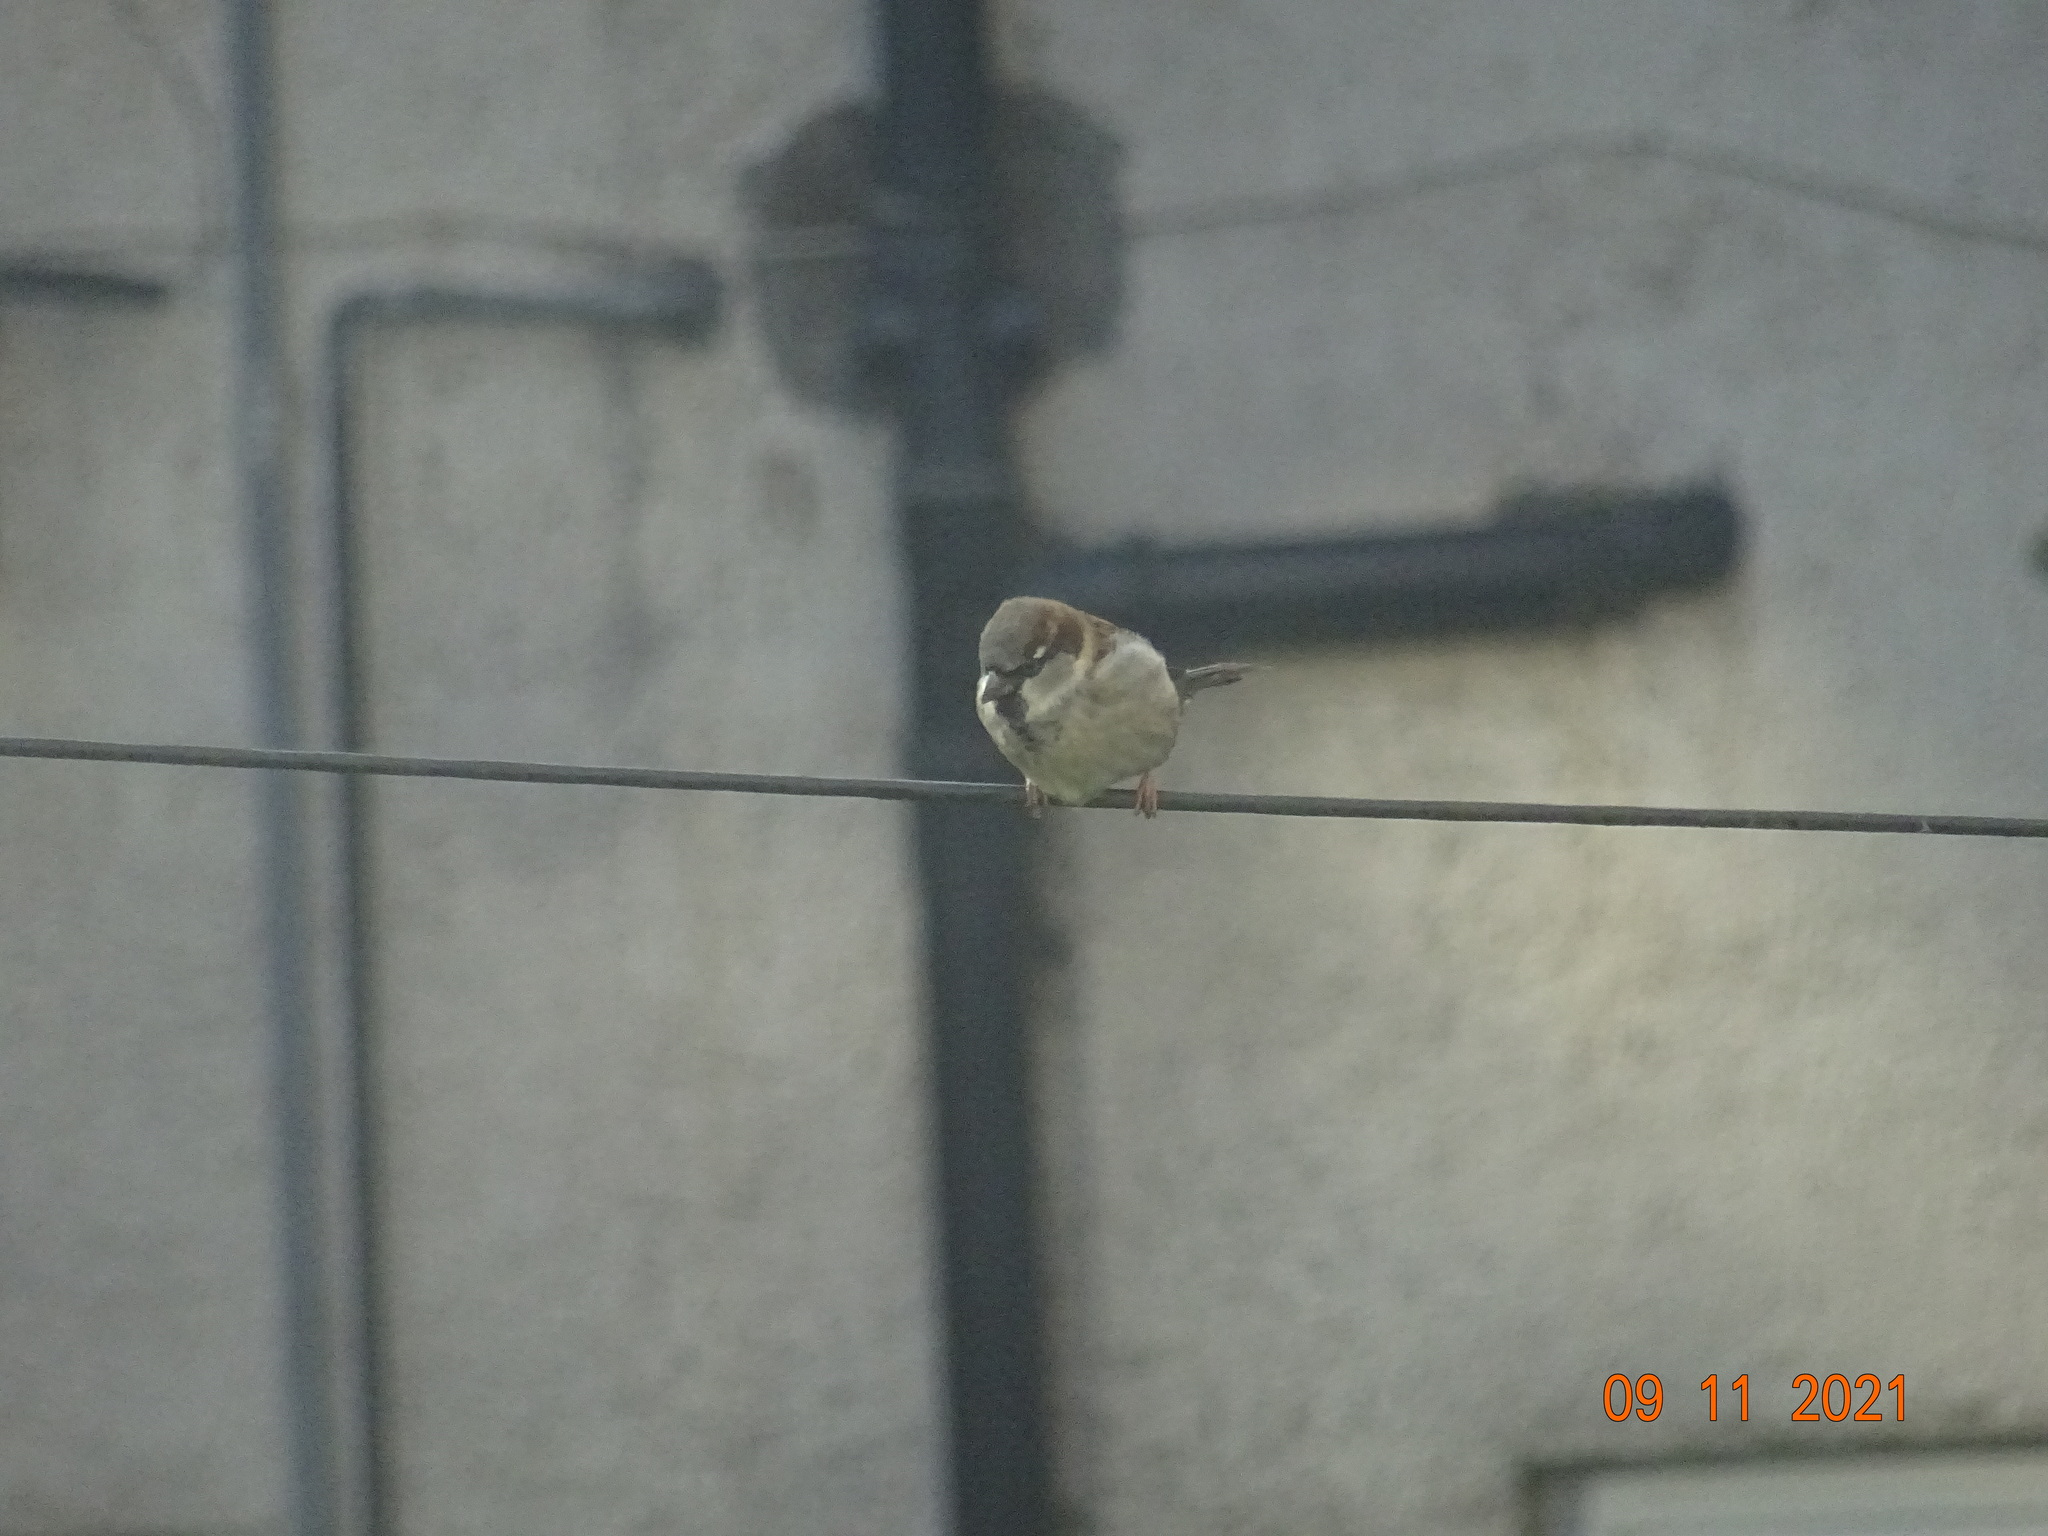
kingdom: Animalia
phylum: Chordata
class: Aves
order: Passeriformes
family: Passeridae
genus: Passer
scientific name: Passer domesticus
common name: House sparrow
